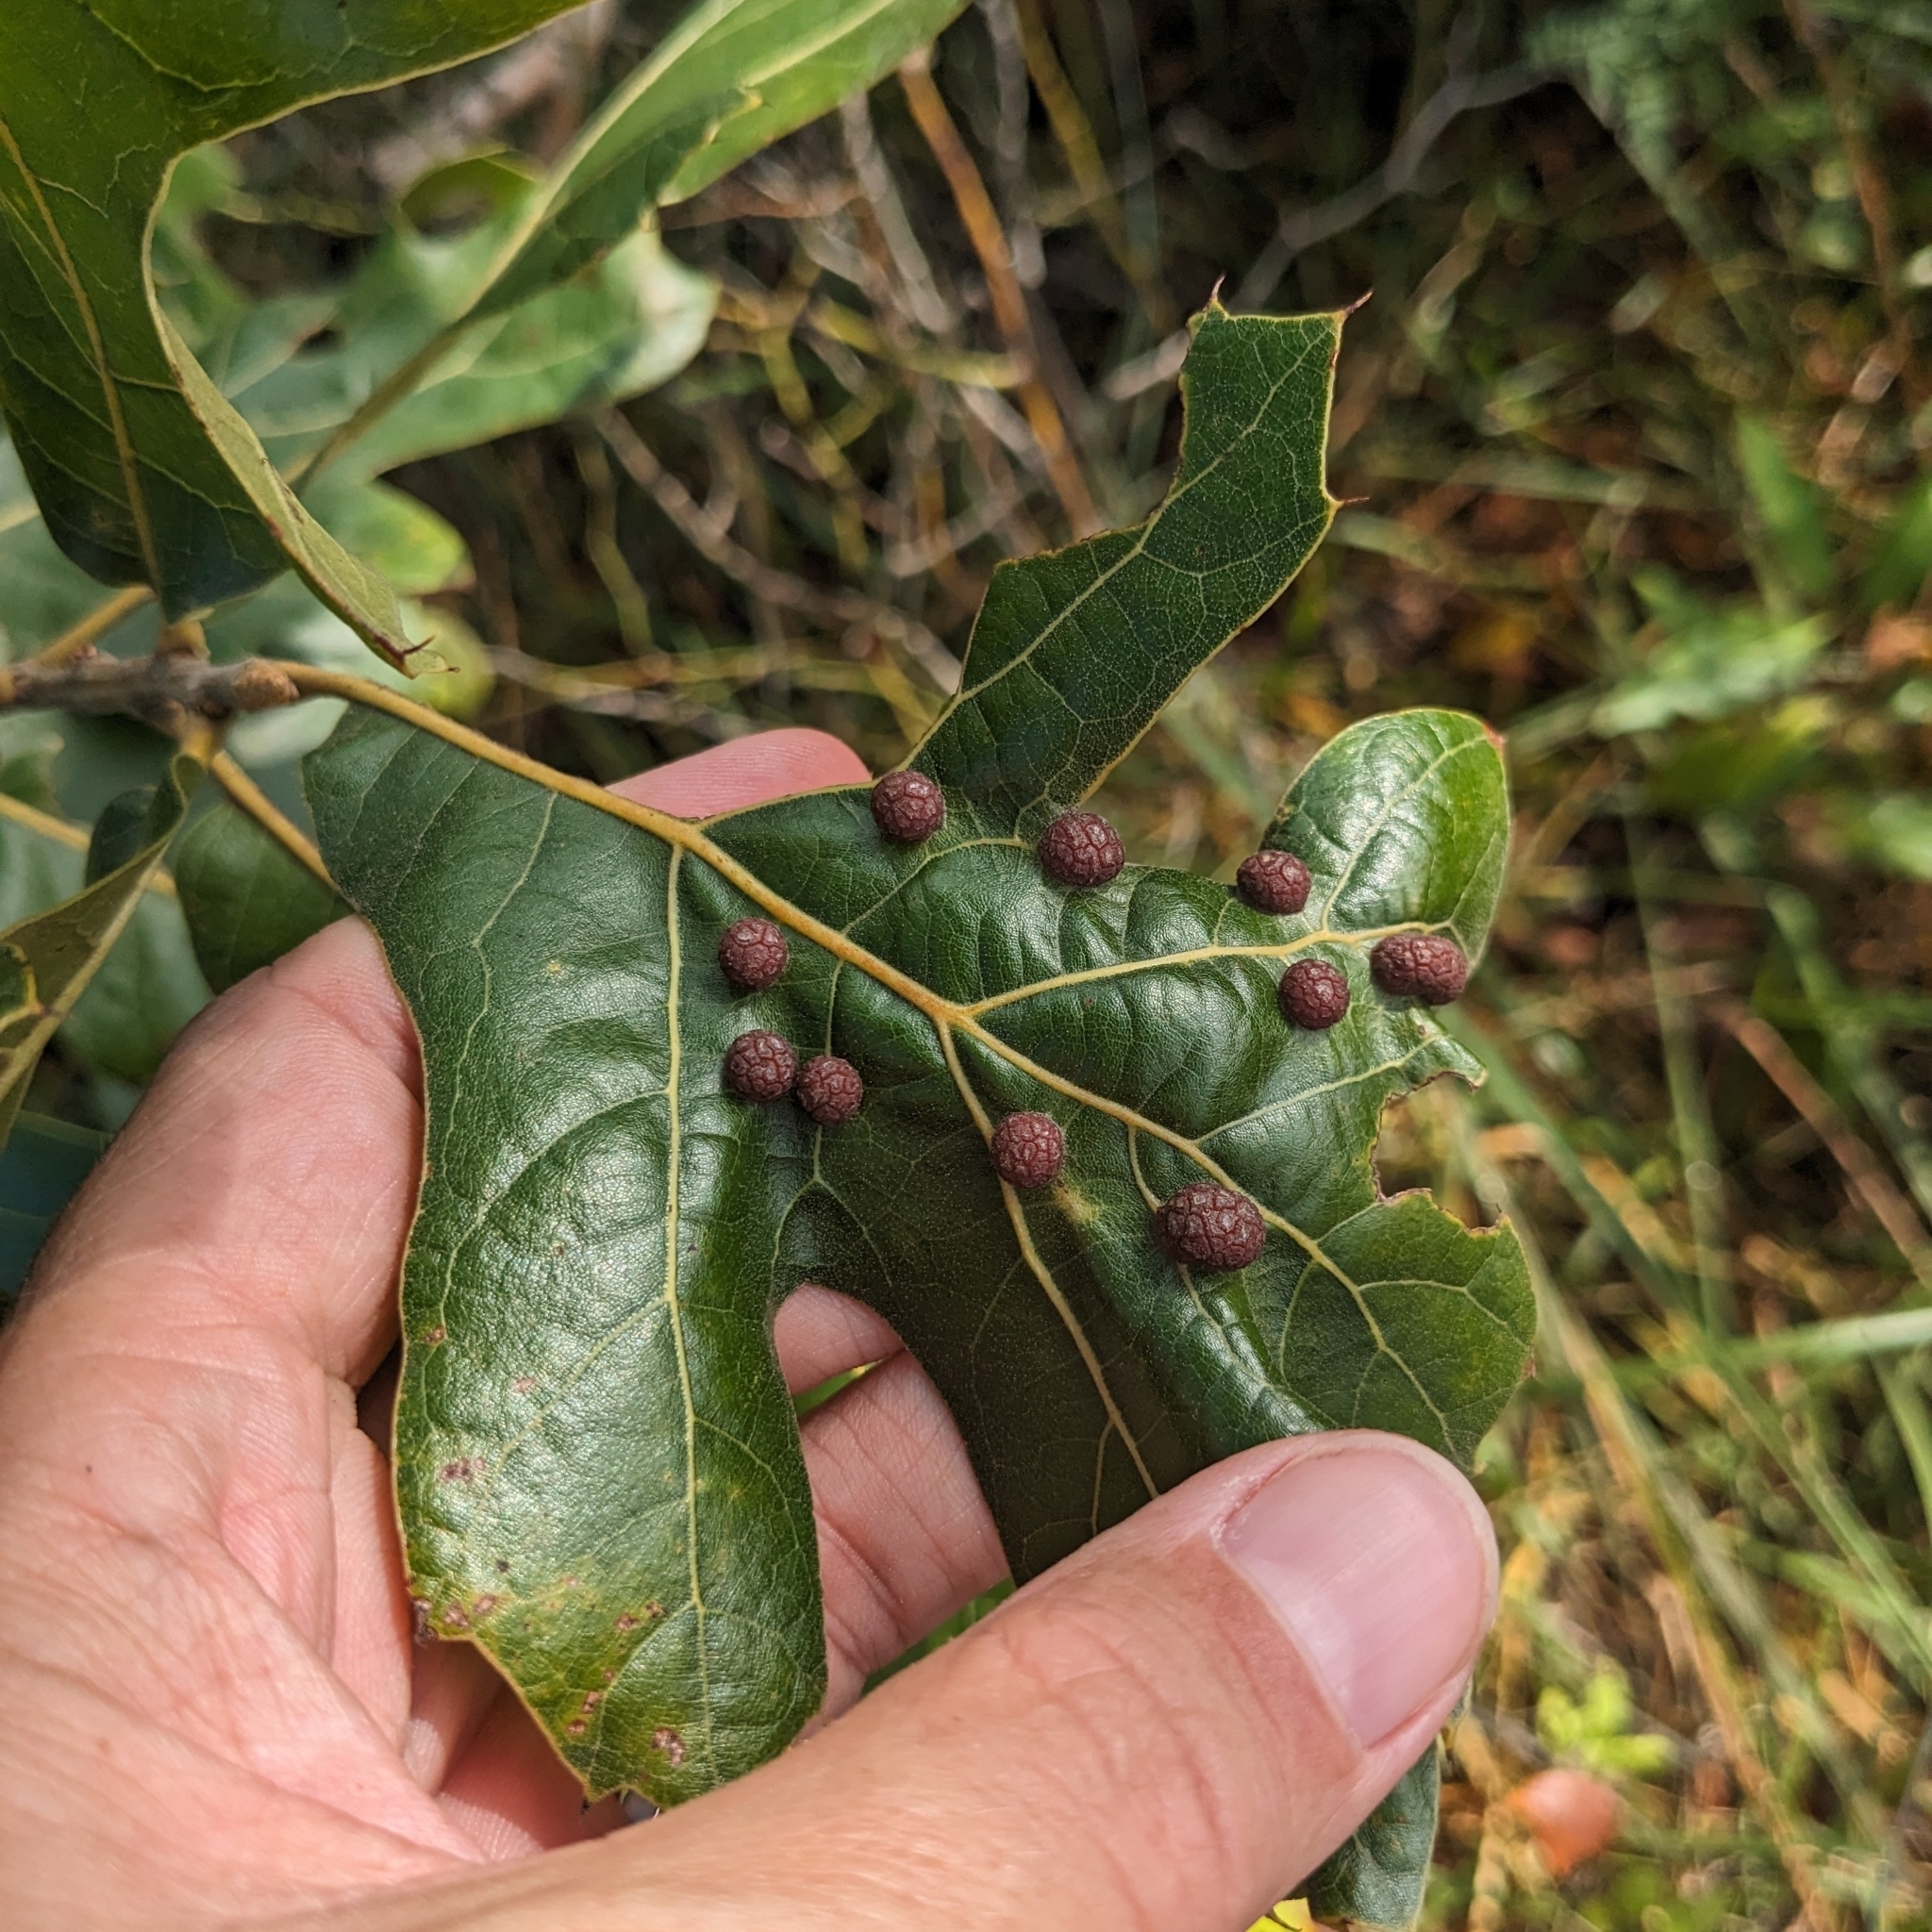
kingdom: Animalia
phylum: Arthropoda
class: Insecta
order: Diptera
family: Cecidomyiidae
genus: Polystepha
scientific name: Polystepha pilulae
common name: Oak leaf gall midge
